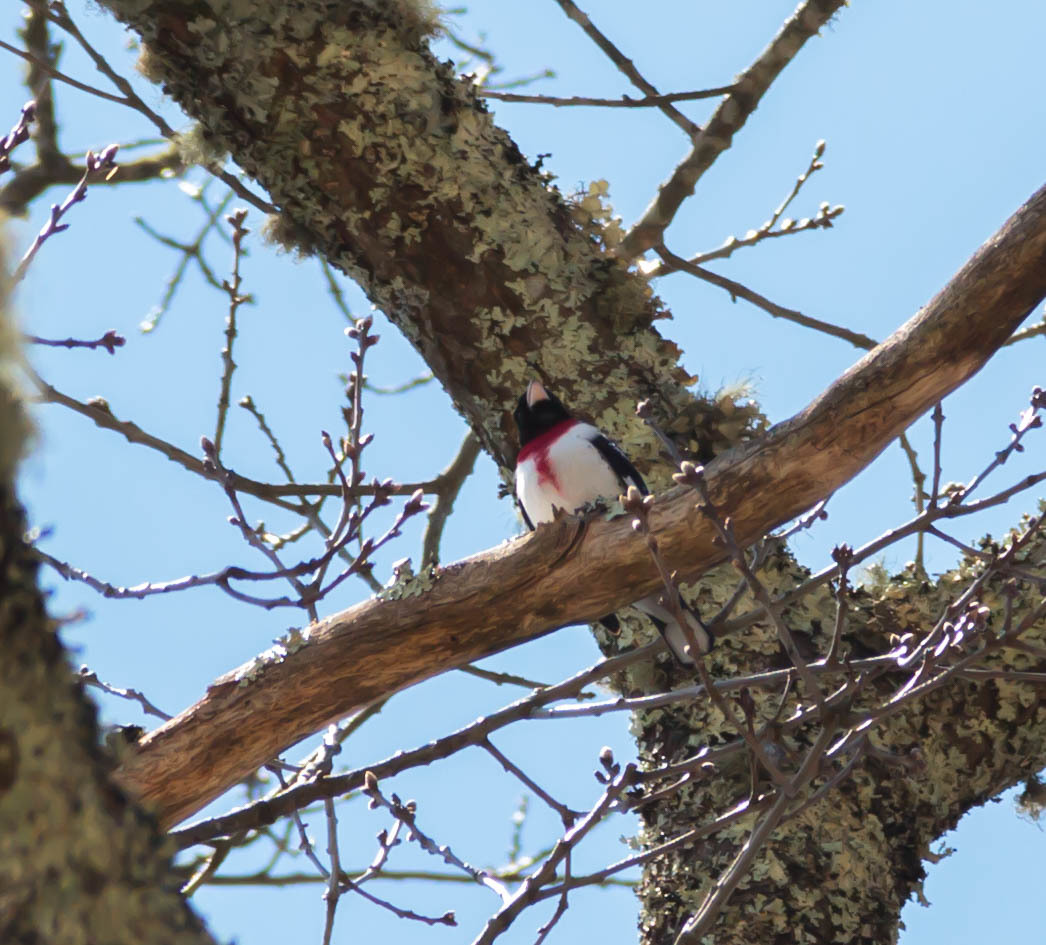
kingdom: Animalia
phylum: Chordata
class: Aves
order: Passeriformes
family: Cardinalidae
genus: Pheucticus
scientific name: Pheucticus ludovicianus
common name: Rose-breasted grosbeak
